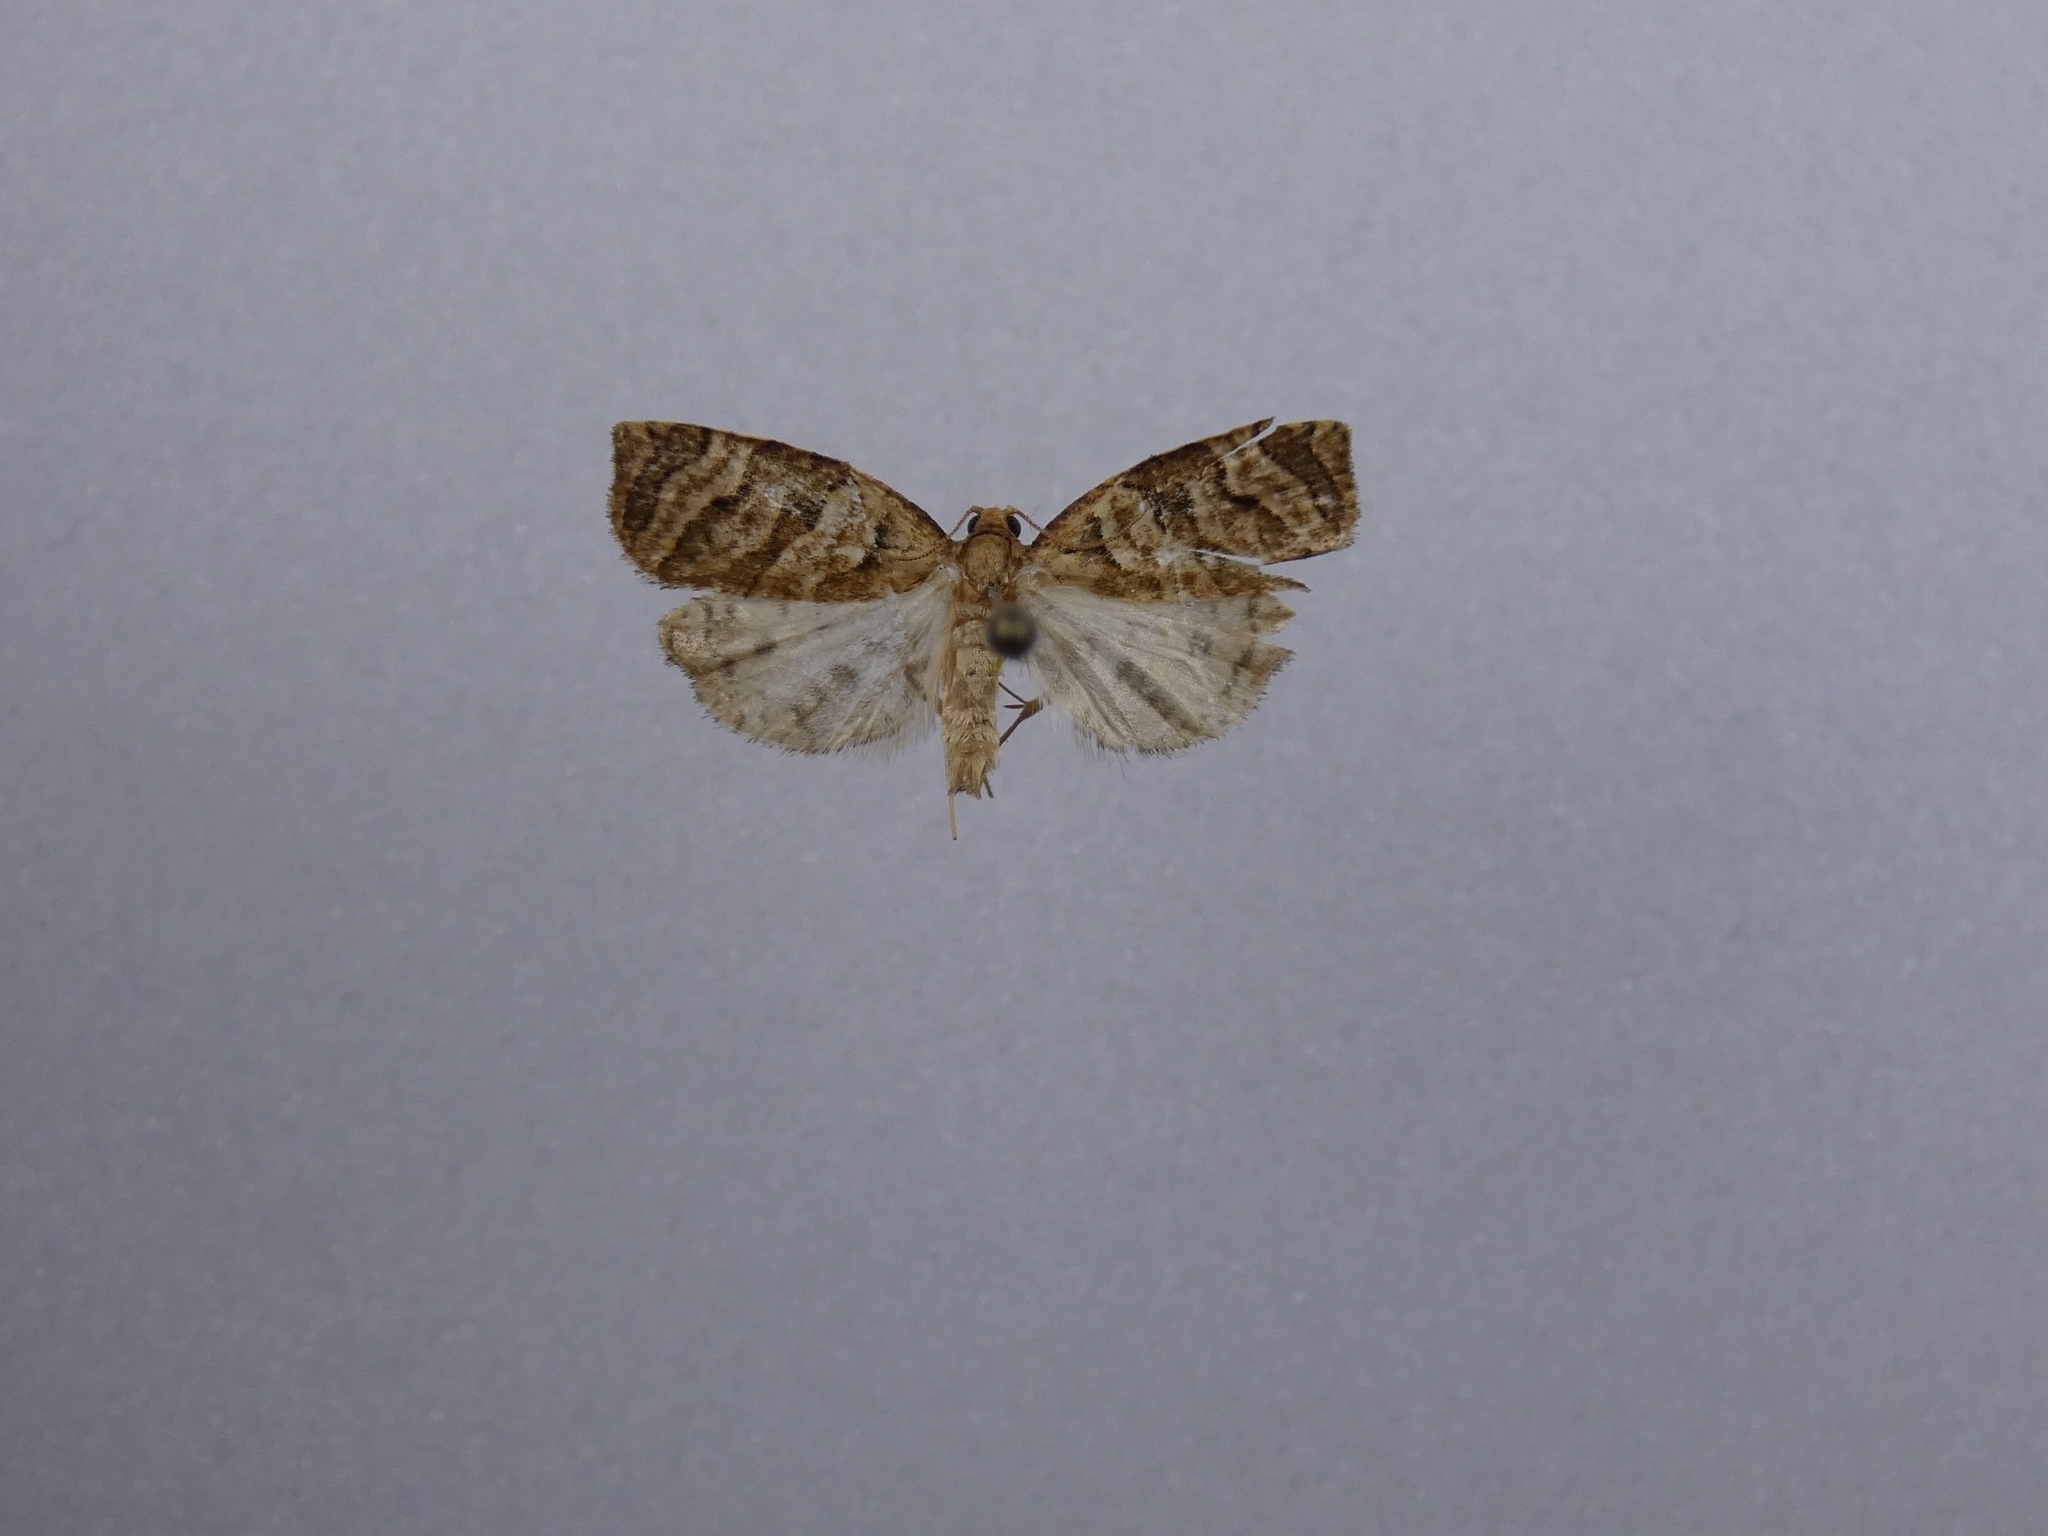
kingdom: Animalia
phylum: Arthropoda
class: Insecta
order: Lepidoptera
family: Tortricidae
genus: Apoctena
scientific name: Apoctena tigris
